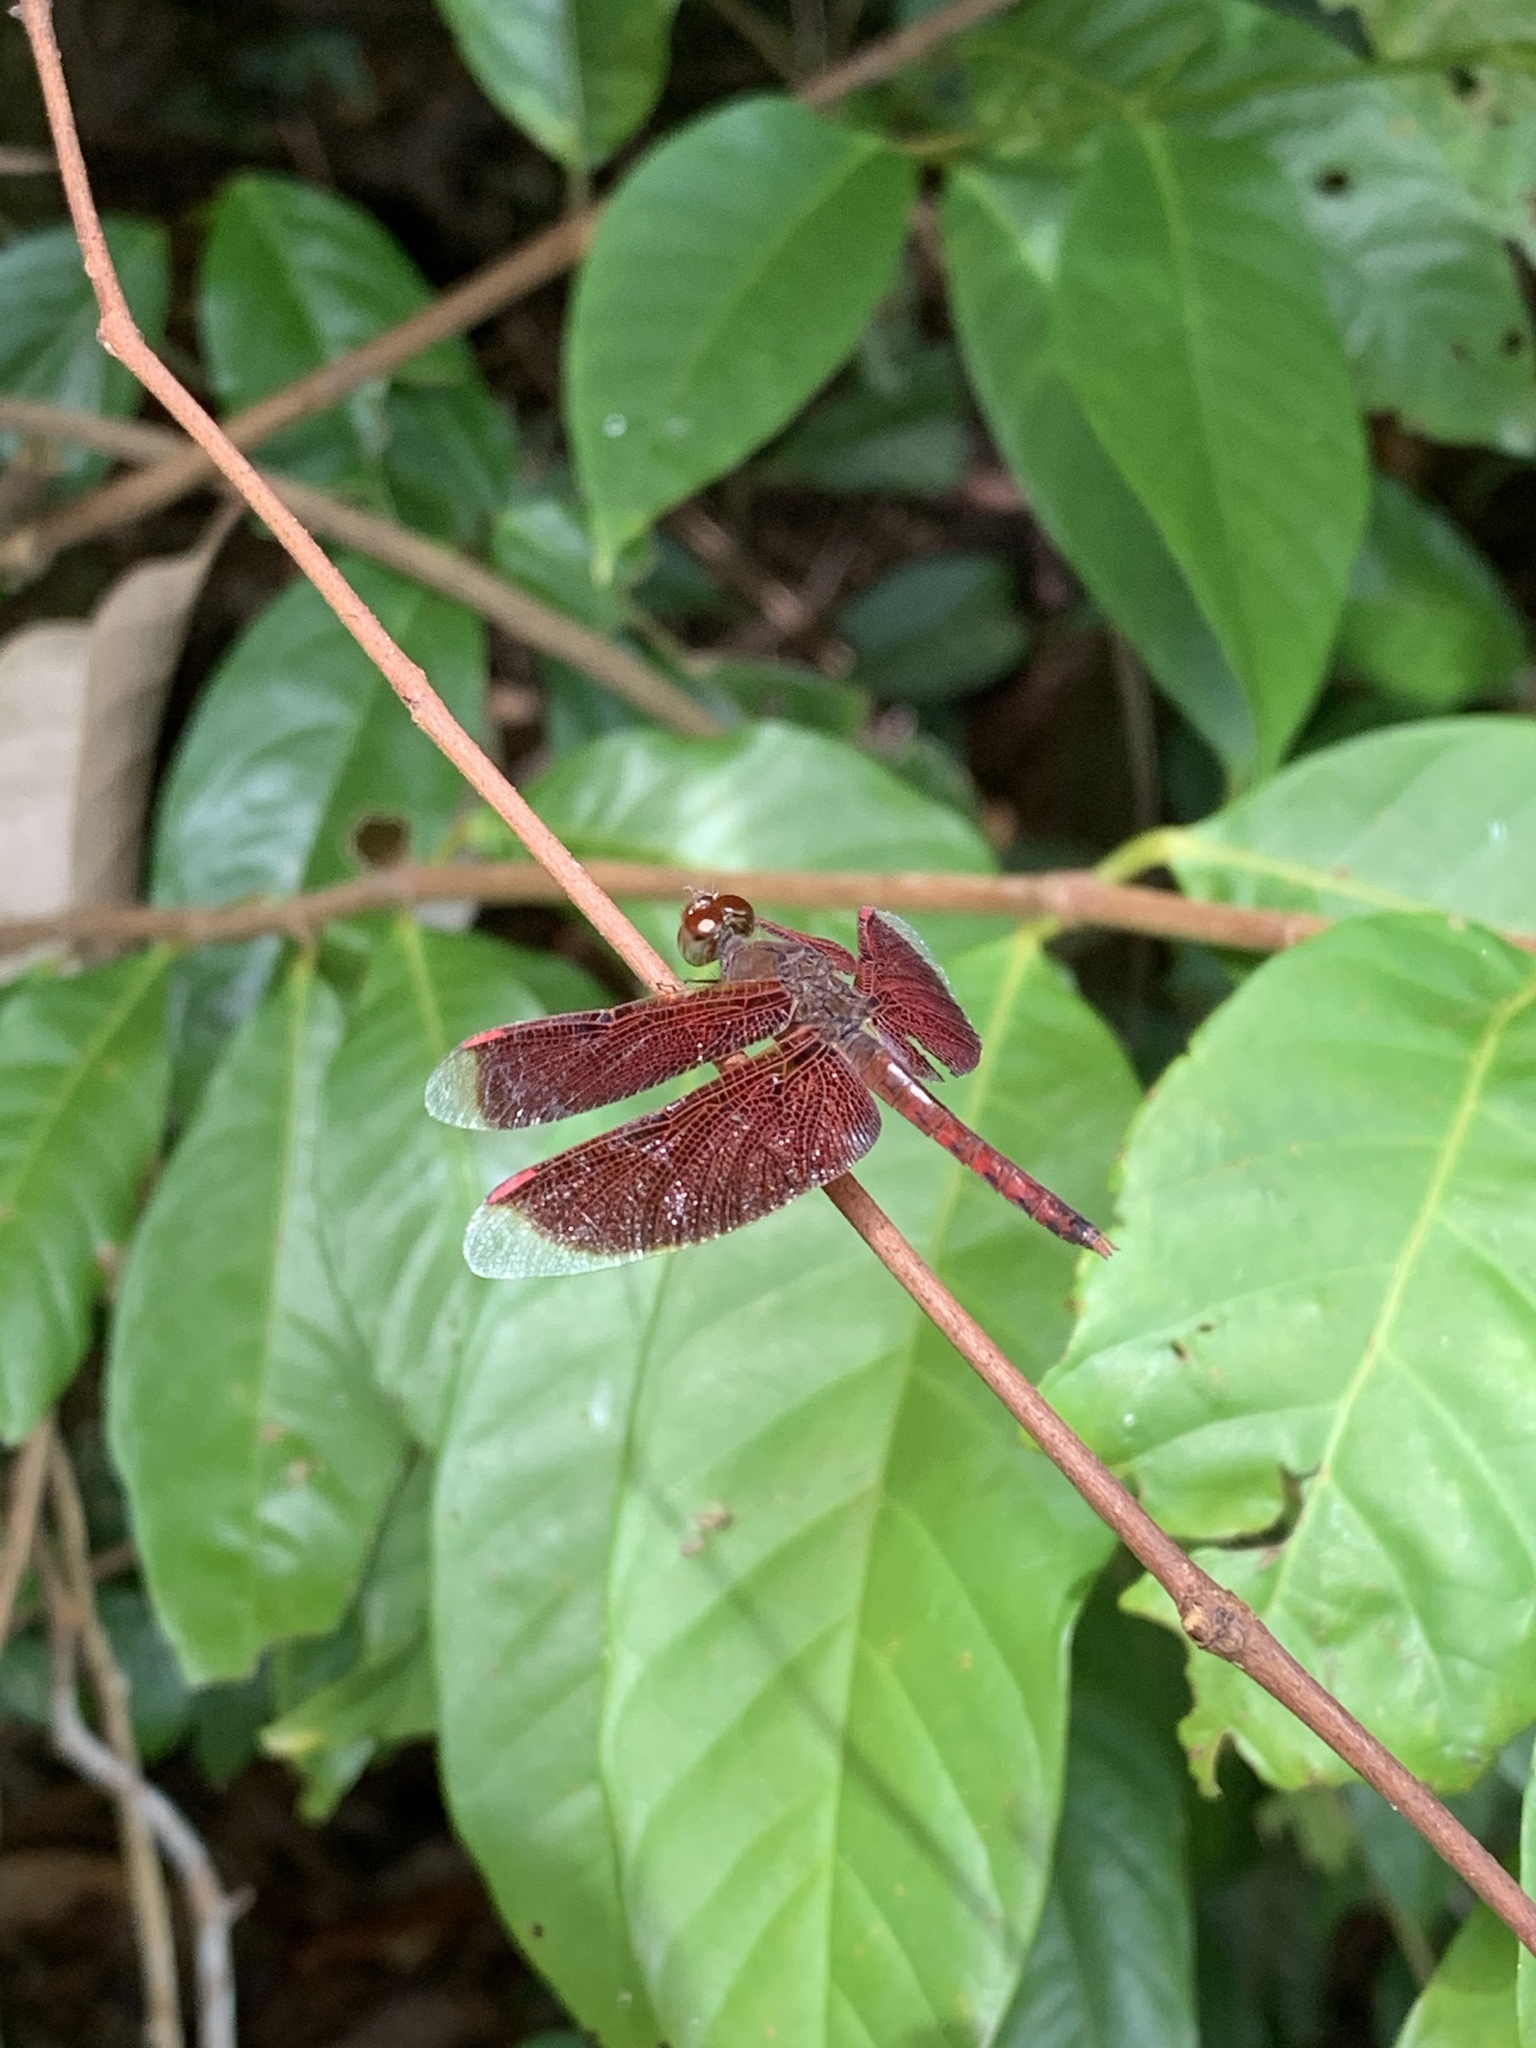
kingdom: Animalia
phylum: Arthropoda
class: Insecta
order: Odonata
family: Libellulidae
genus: Neurothemis
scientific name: Neurothemis fluctuans
